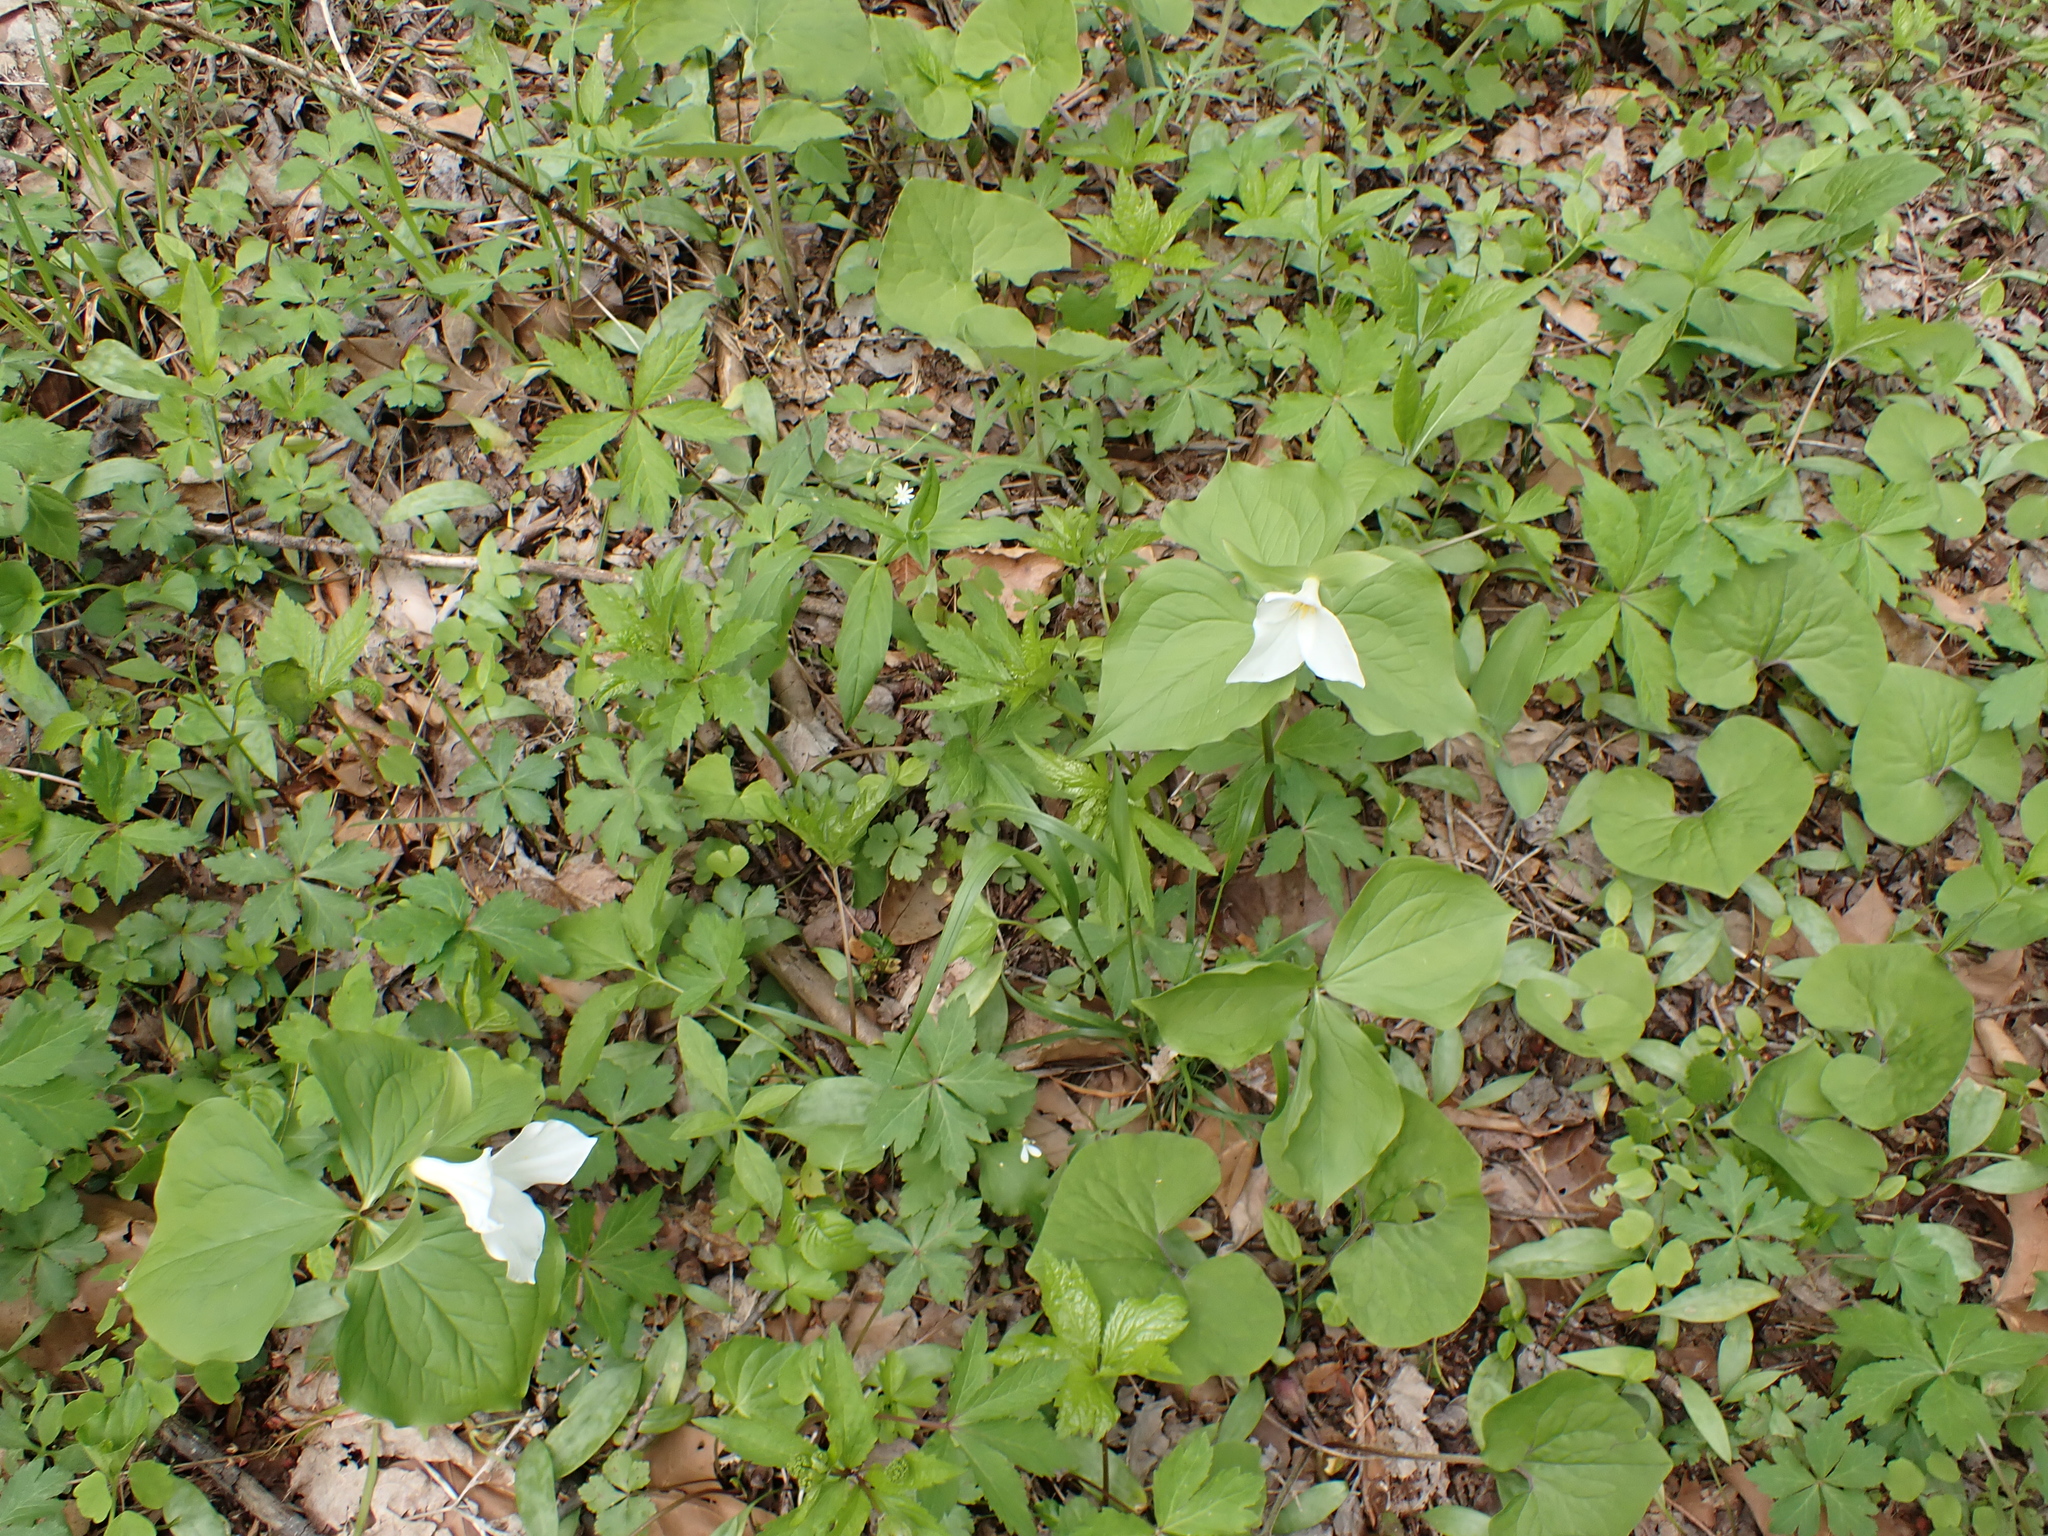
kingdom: Plantae
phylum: Tracheophyta
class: Liliopsida
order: Liliales
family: Melanthiaceae
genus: Trillium
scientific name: Trillium grandiflorum
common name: Great white trillium
